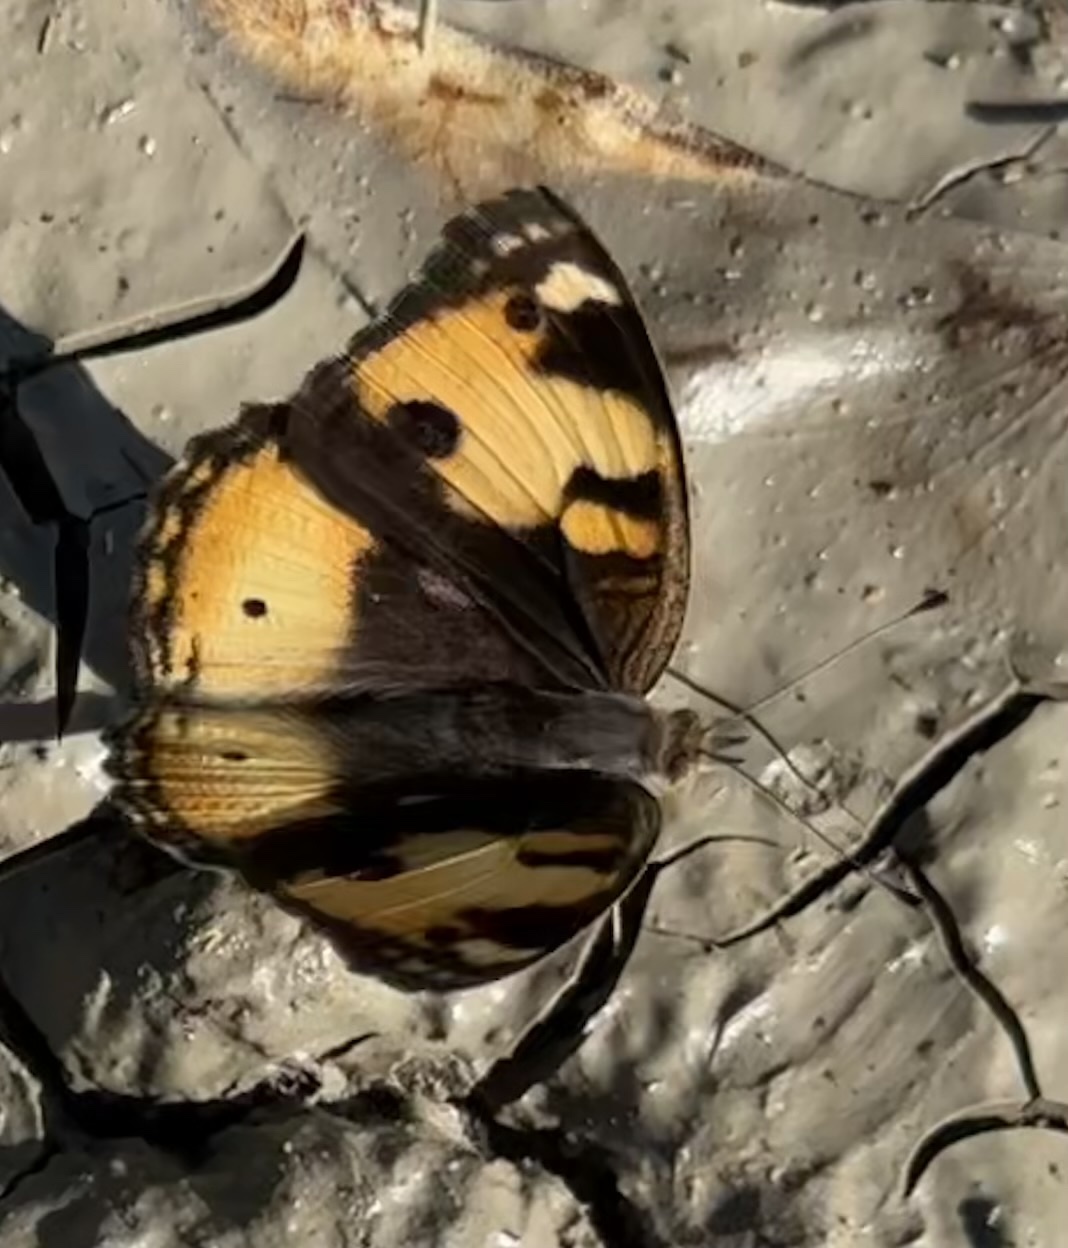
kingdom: Animalia
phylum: Arthropoda
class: Insecta
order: Lepidoptera
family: Nymphalidae
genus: Junonia
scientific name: Junonia hierta
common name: Yellow pansy
